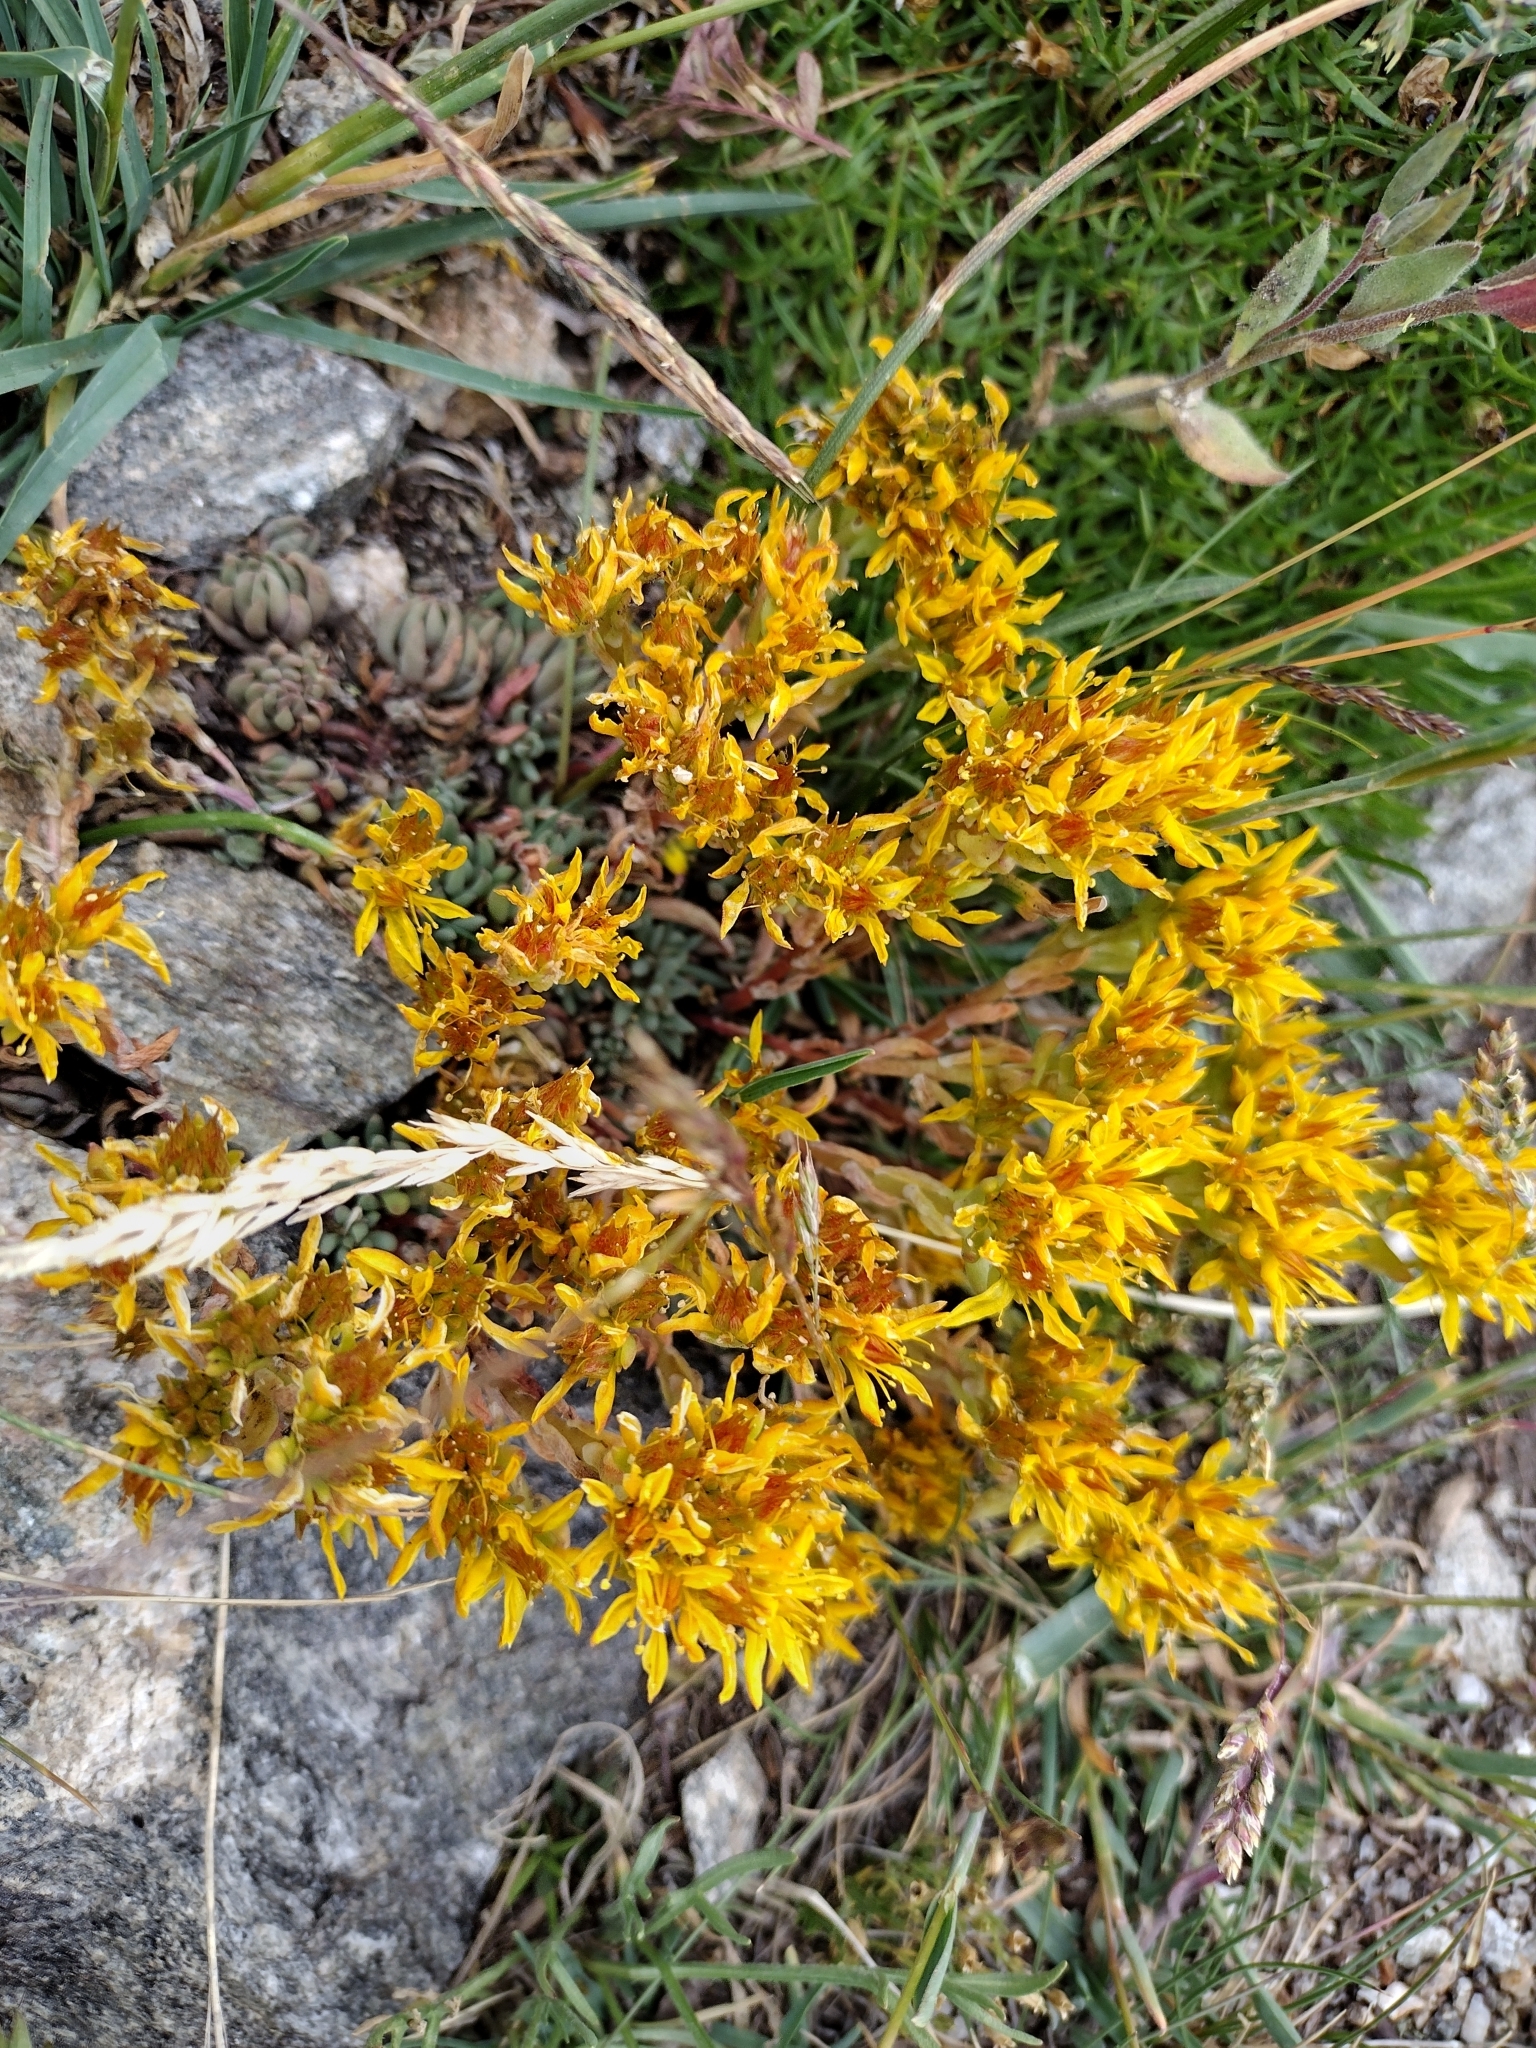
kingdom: Plantae
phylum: Tracheophyta
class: Magnoliopsida
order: Saxifragales
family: Crassulaceae
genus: Sedum
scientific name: Sedum lanceolatum
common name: Common stonecrop
